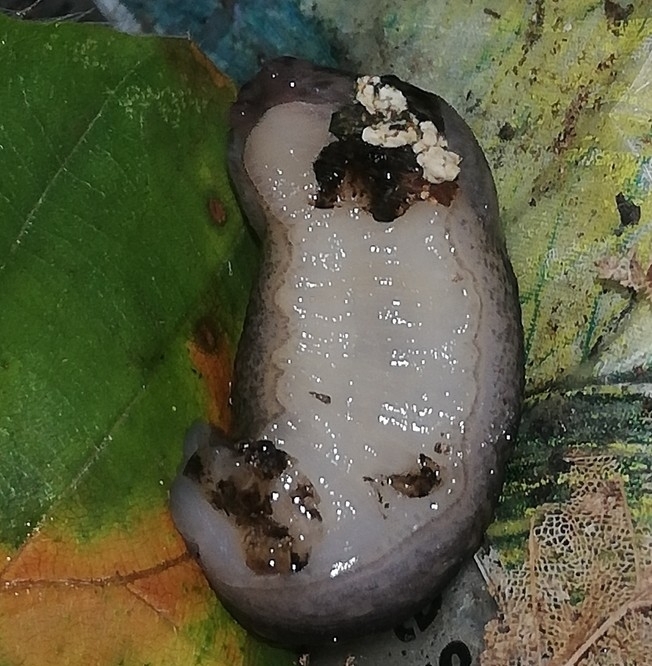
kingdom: Animalia
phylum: Mollusca
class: Gastropoda
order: Stylommatophora
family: Limacidae
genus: Limax
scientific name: Limax maximus
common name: Great grey slug
